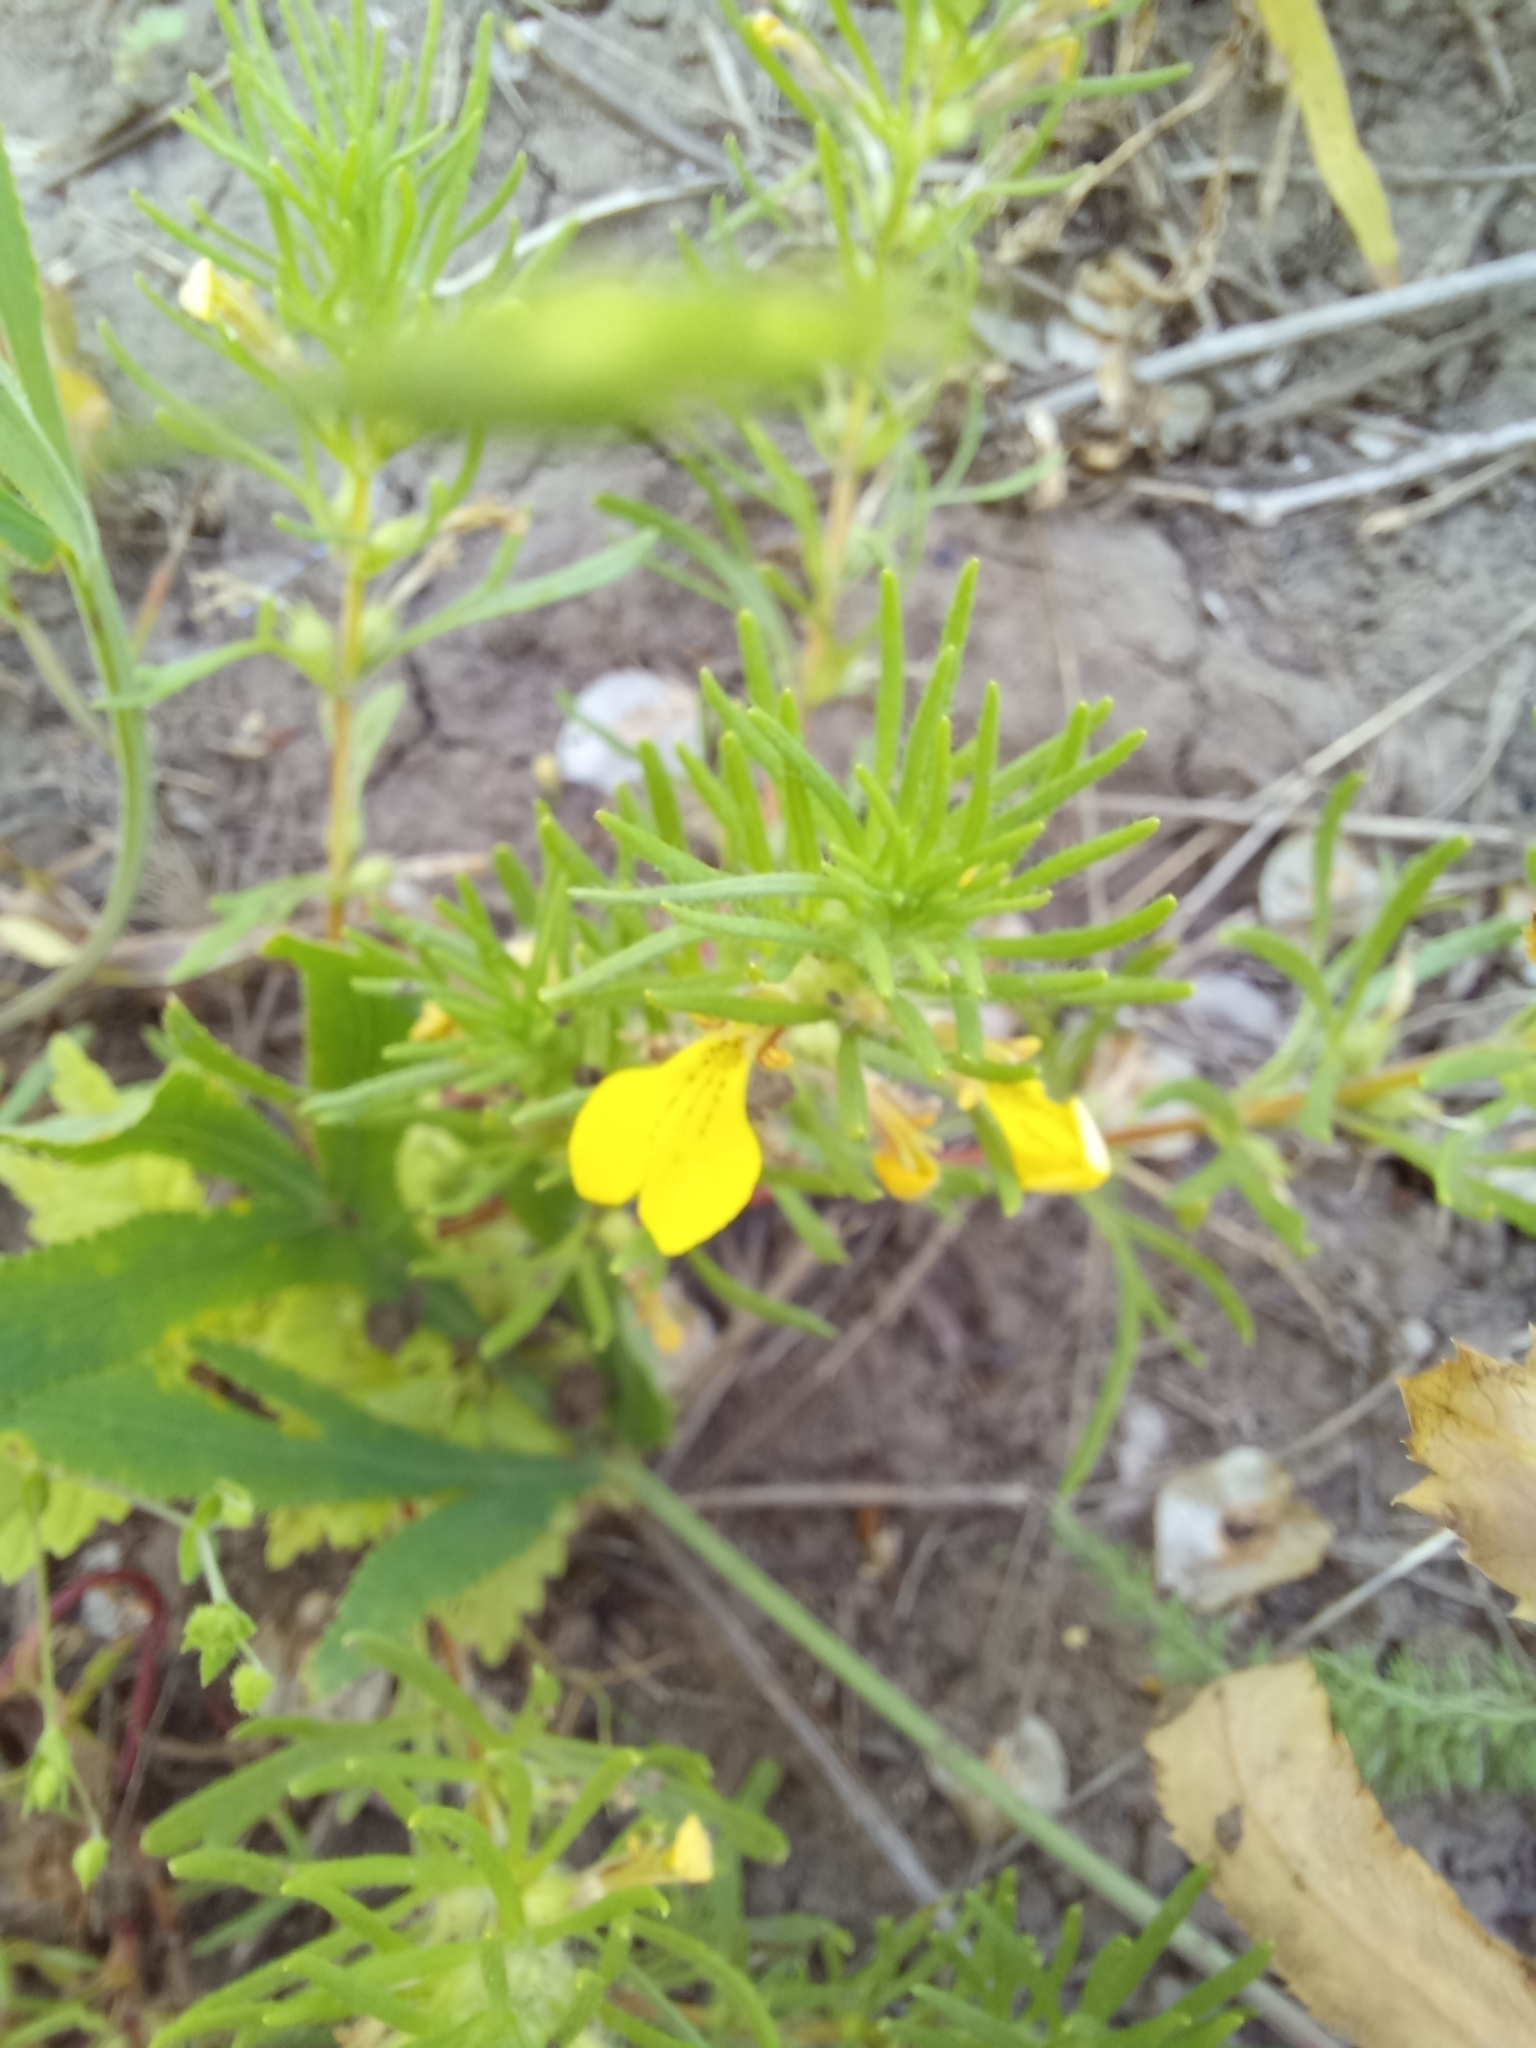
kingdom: Plantae
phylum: Tracheophyta
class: Magnoliopsida
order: Lamiales
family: Lamiaceae
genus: Ajuga
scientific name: Ajuga chamaepitys
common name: Ground-pine
